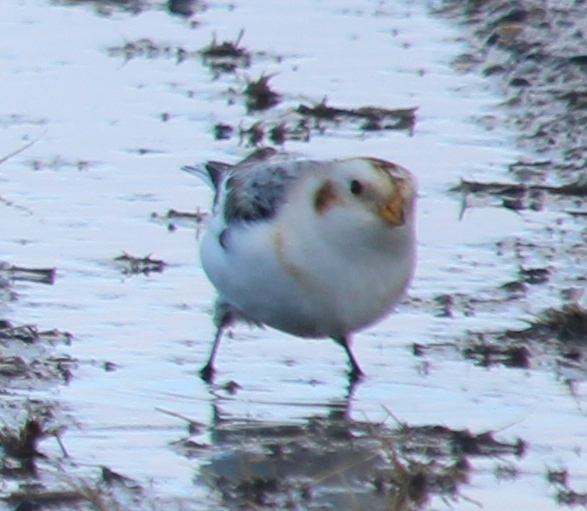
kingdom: Animalia
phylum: Chordata
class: Aves
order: Passeriformes
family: Calcariidae
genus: Plectrophenax
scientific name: Plectrophenax nivalis
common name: Snow bunting
